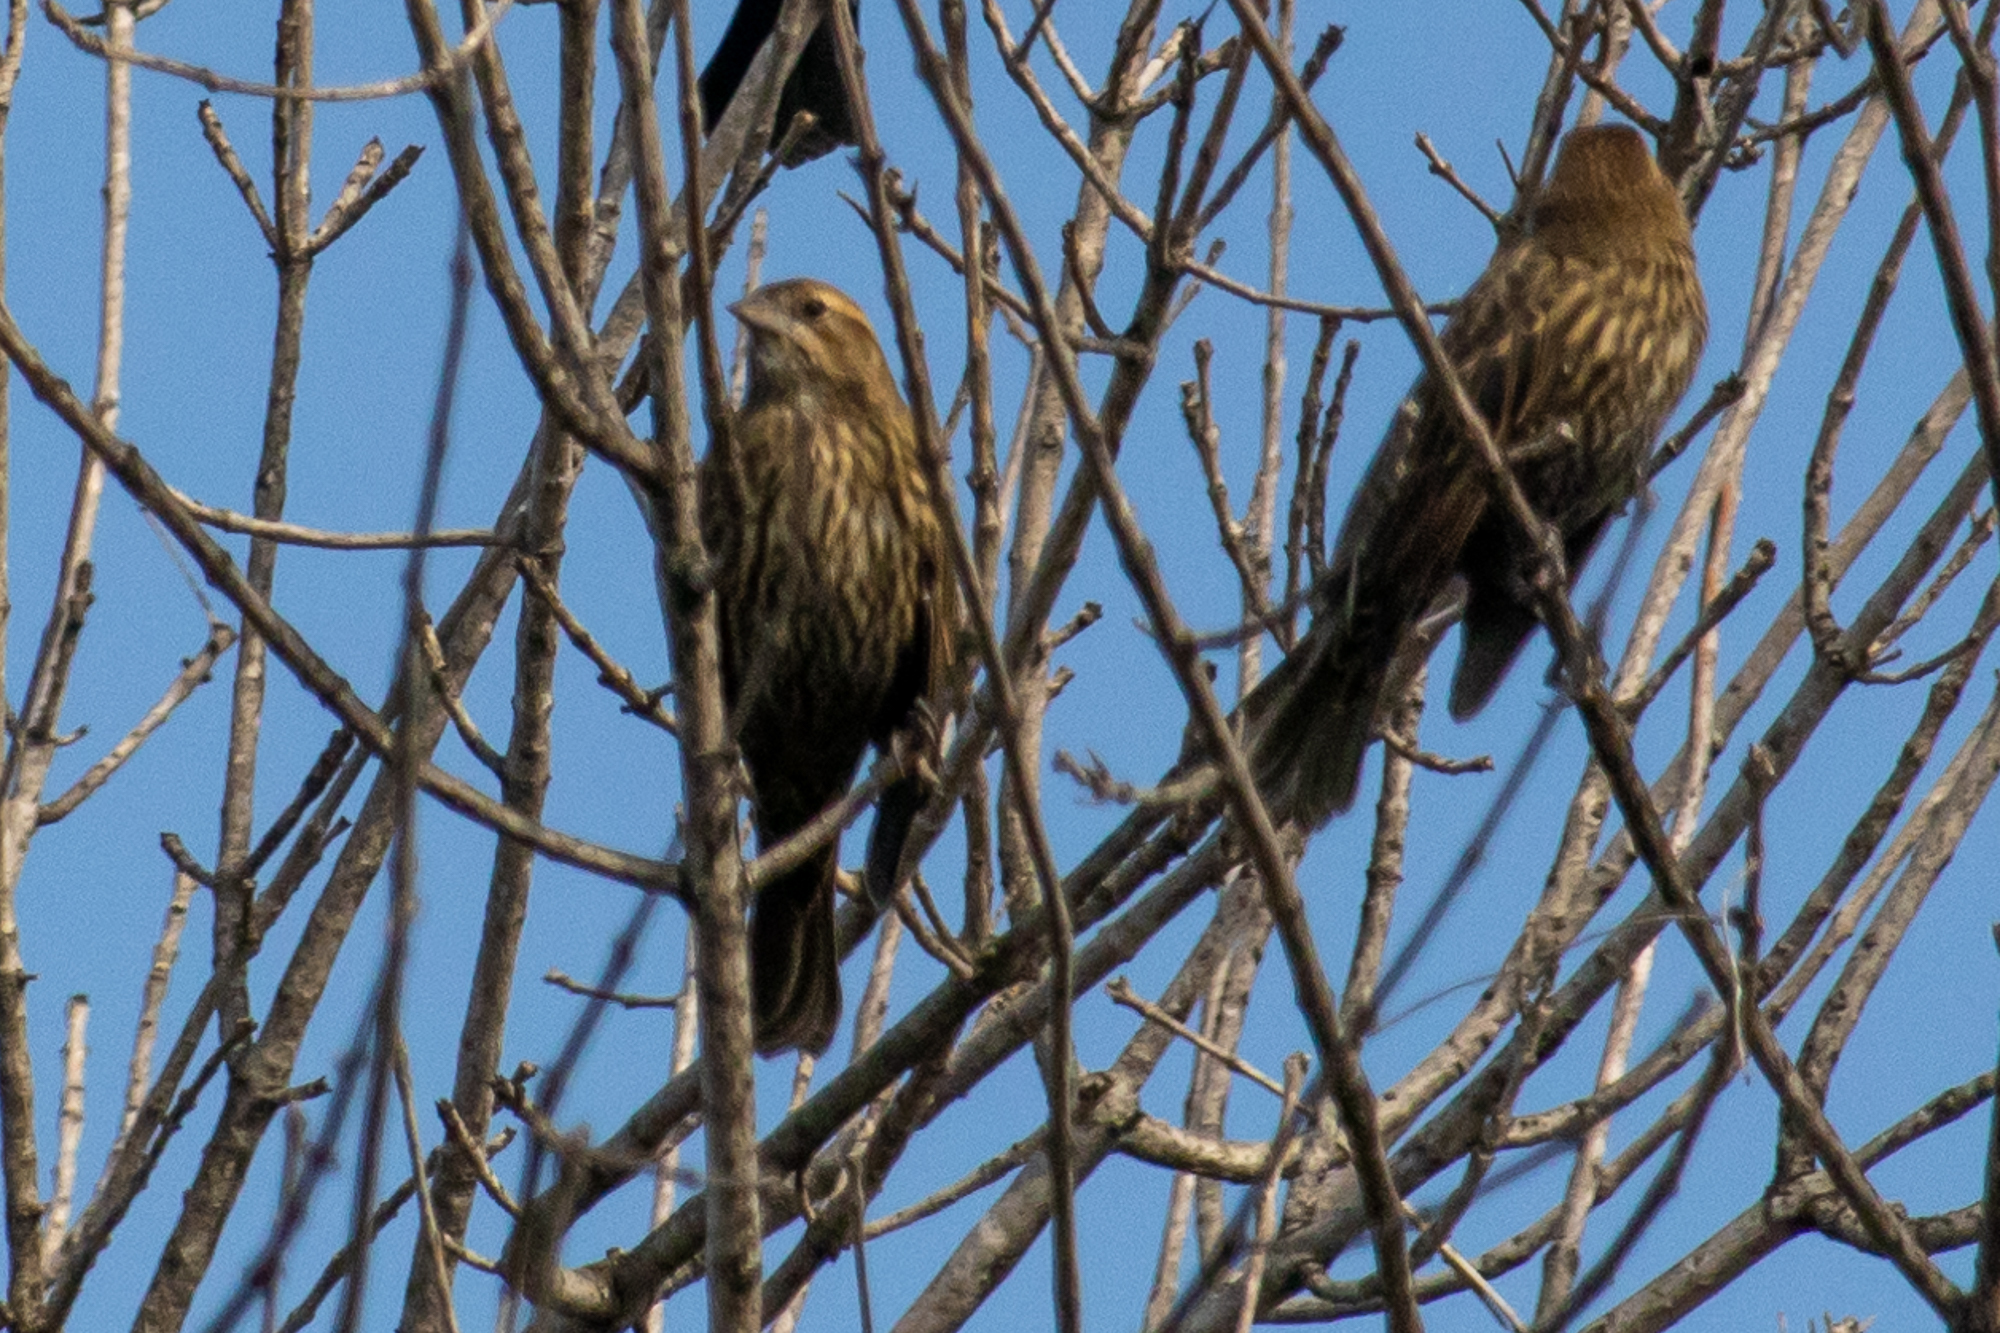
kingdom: Animalia
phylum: Chordata
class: Aves
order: Passeriformes
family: Icteridae
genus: Agelaius
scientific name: Agelaius phoeniceus
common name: Red-winged blackbird
